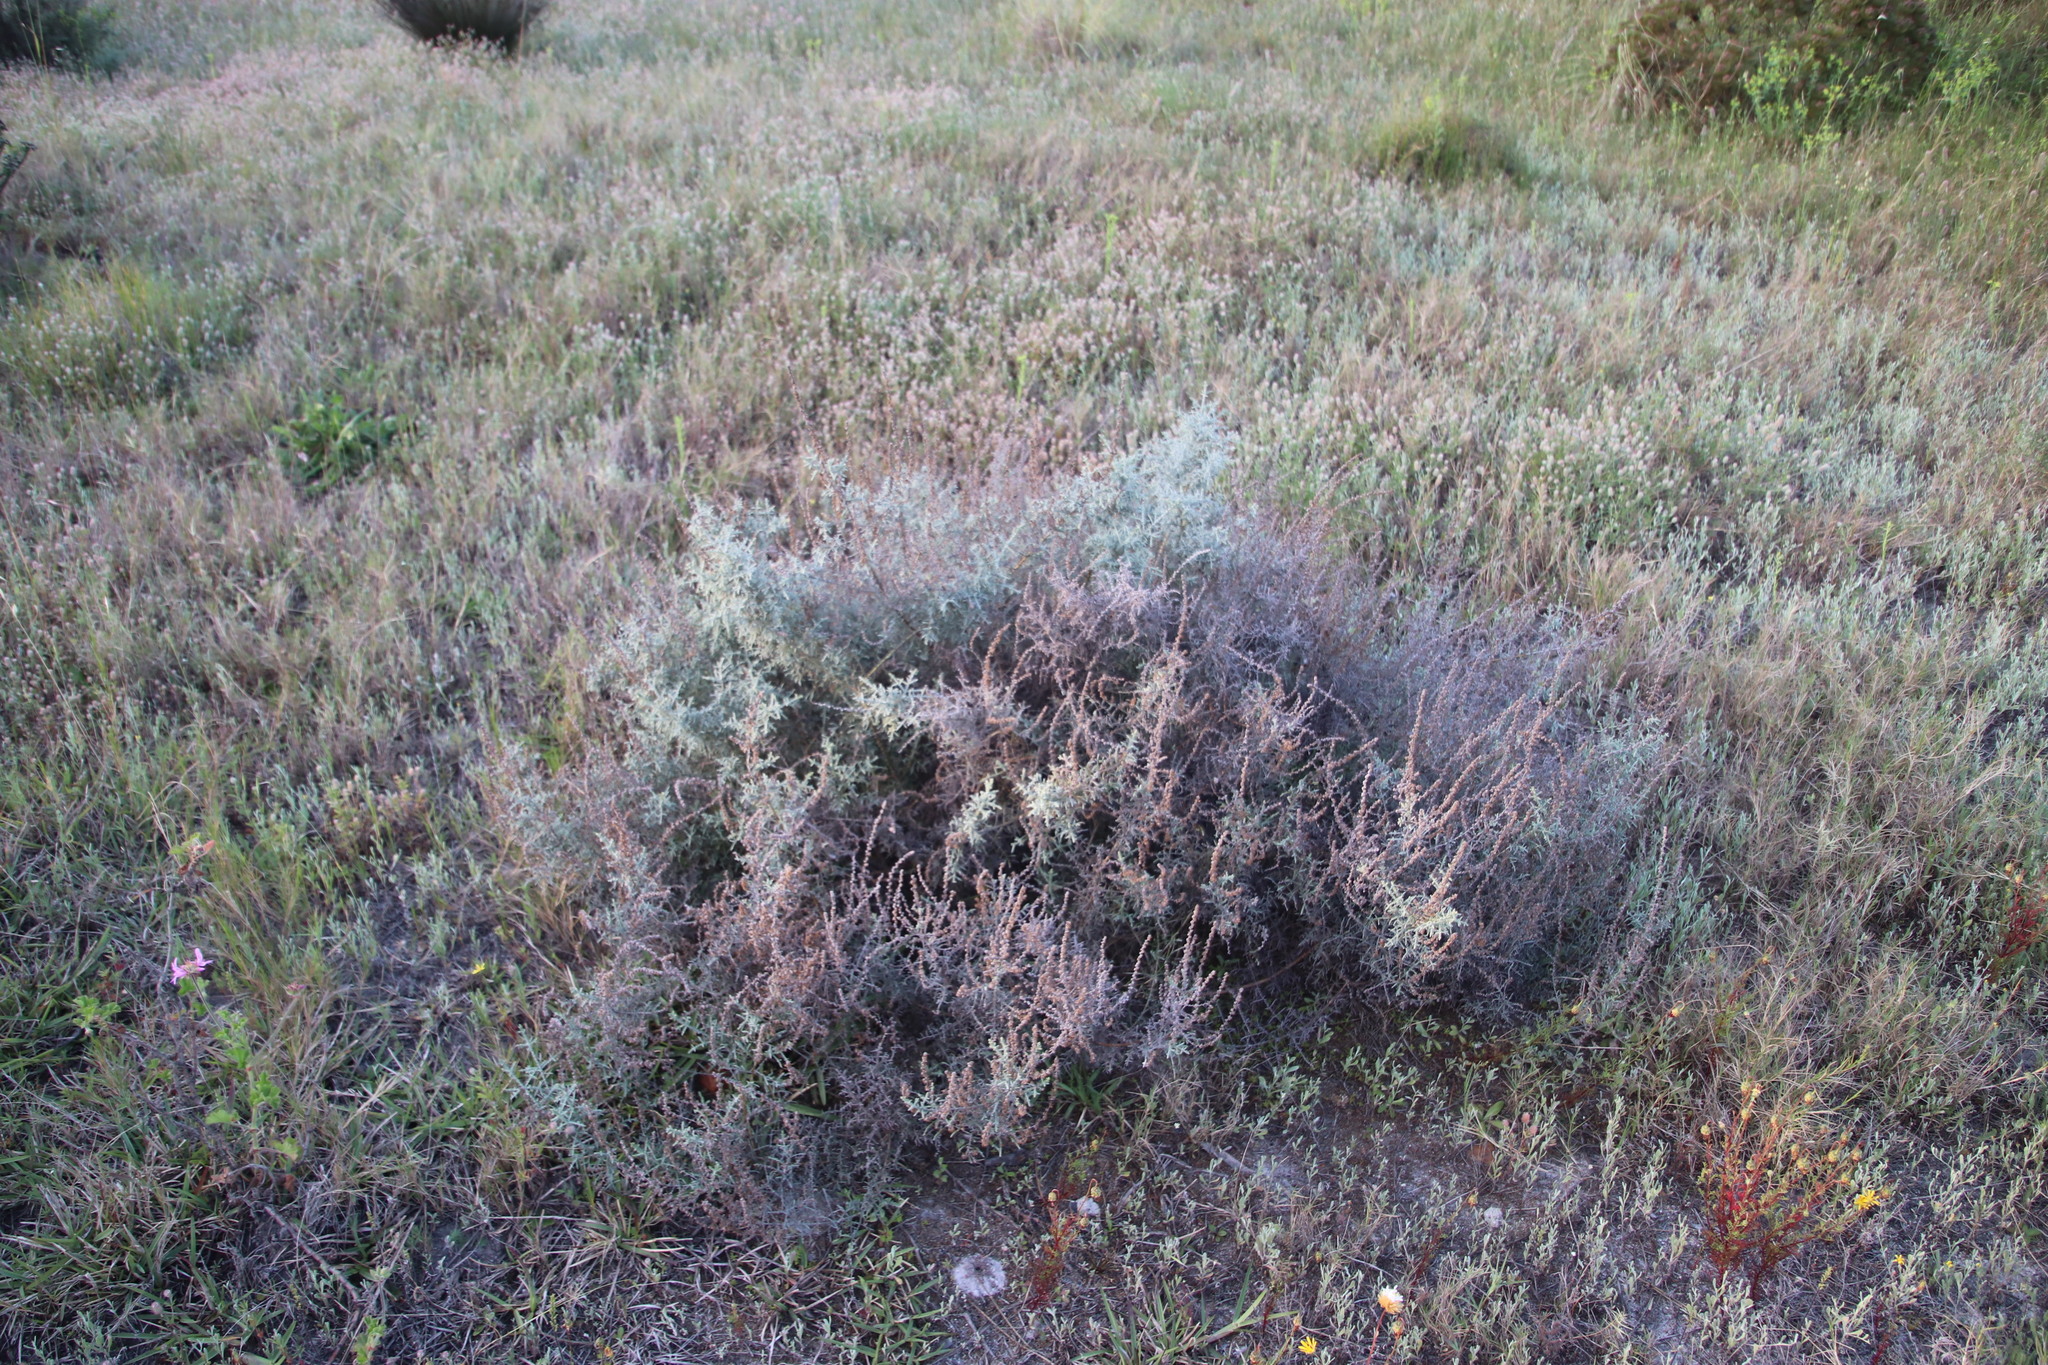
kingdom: Plantae
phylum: Tracheophyta
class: Magnoliopsida
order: Asterales
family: Asteraceae
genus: Seriphium
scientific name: Seriphium plumosum
